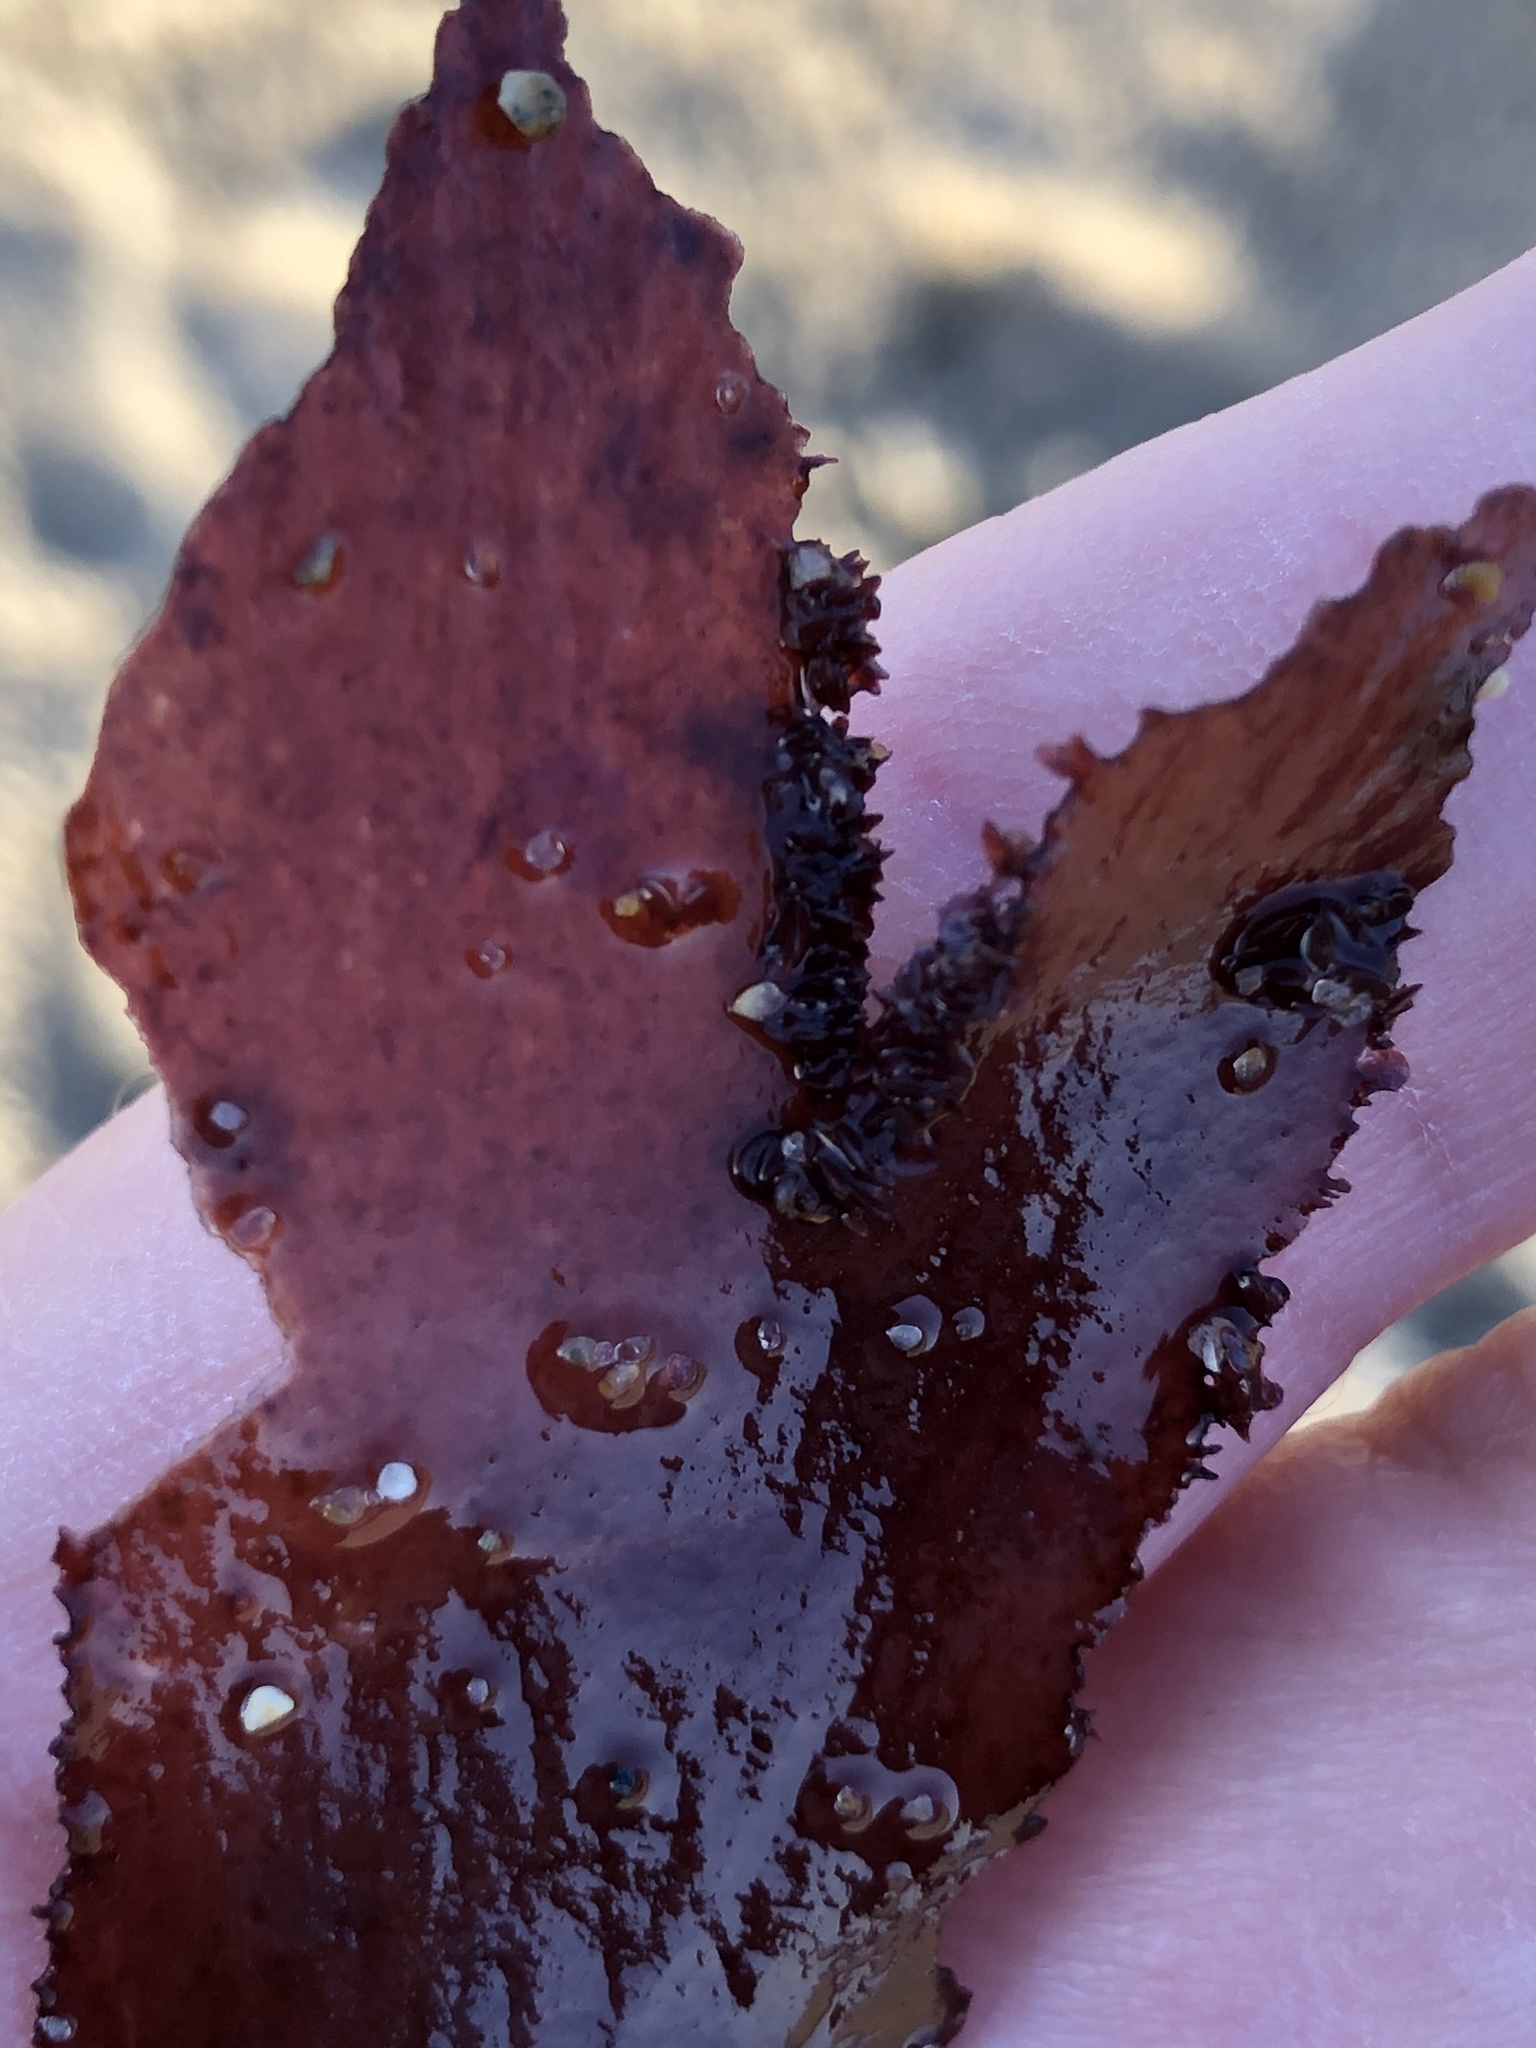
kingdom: Plantae
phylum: Rhodophyta
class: Florideophyceae
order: Ceramiales
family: Delesseriaceae
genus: Cryptopleura
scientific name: Cryptopleura ruprechtiana
